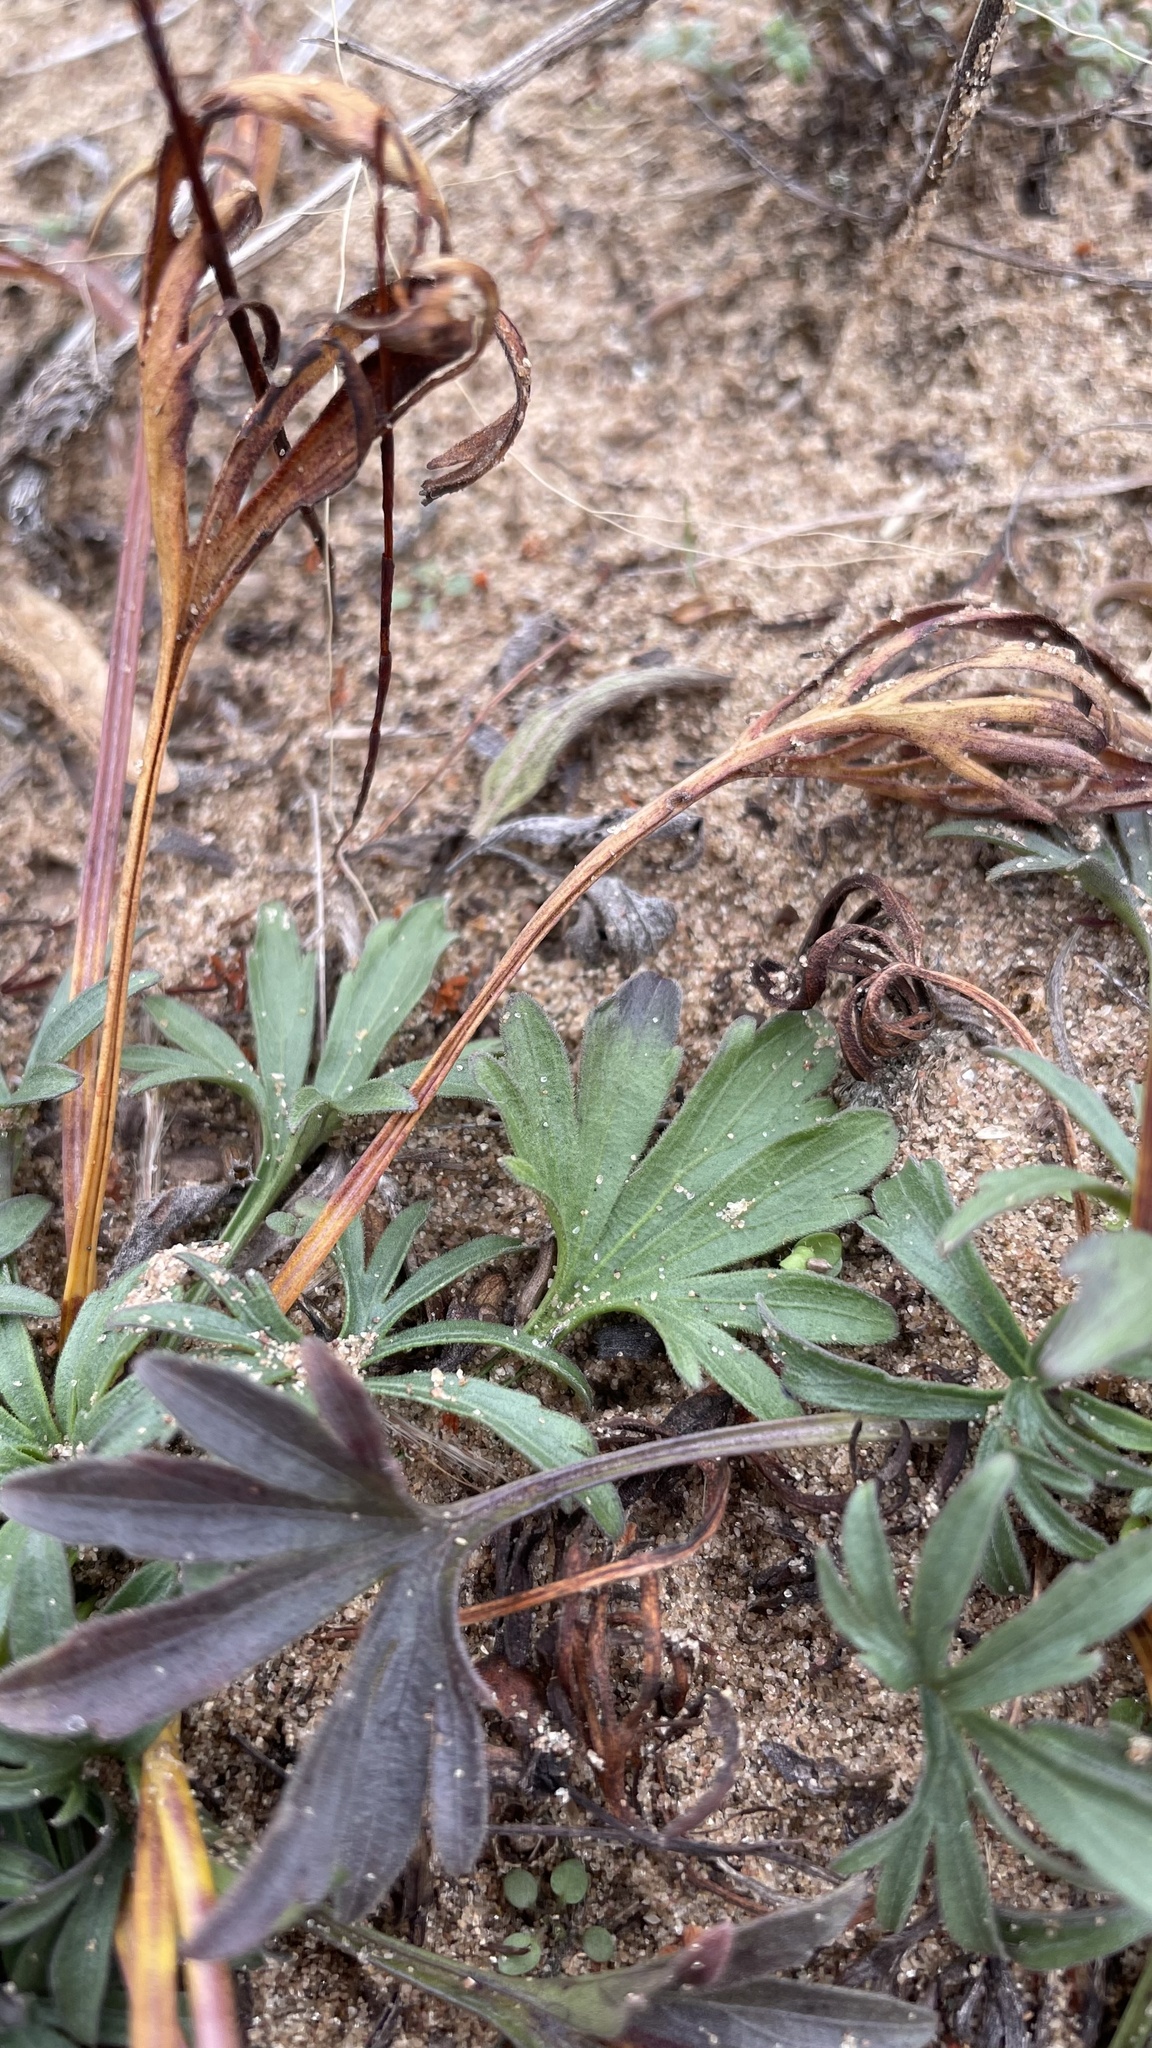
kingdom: Plantae
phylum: Tracheophyta
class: Magnoliopsida
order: Malpighiales
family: Violaceae
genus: Viola
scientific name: Viola pedata
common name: Pansy violet
